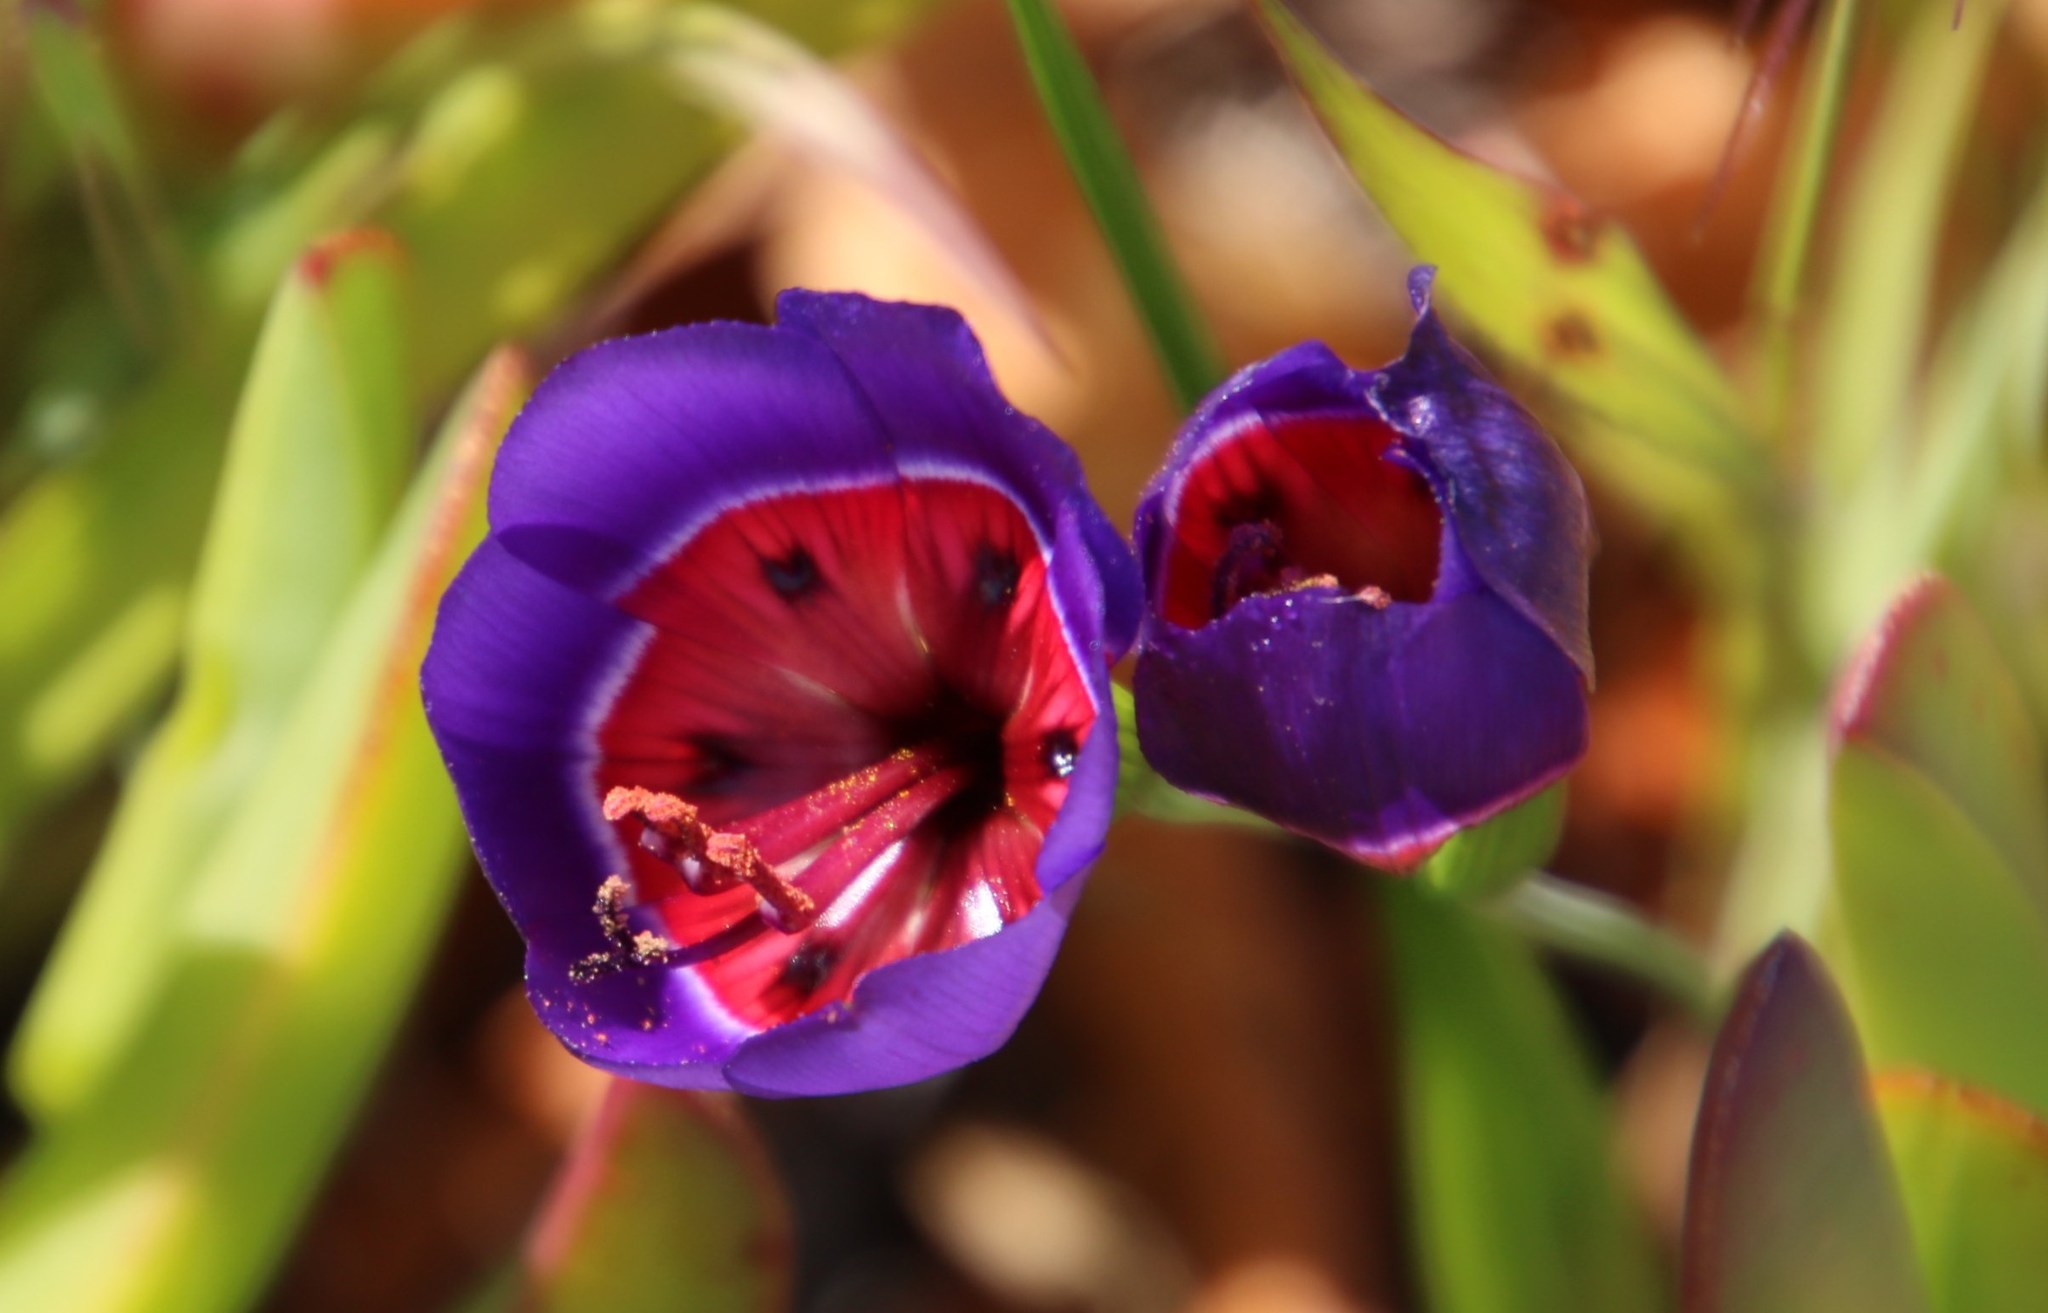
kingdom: Plantae
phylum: Tracheophyta
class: Liliopsida
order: Asparagales
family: Iridaceae
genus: Geissorhiza
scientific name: Geissorhiza radians
